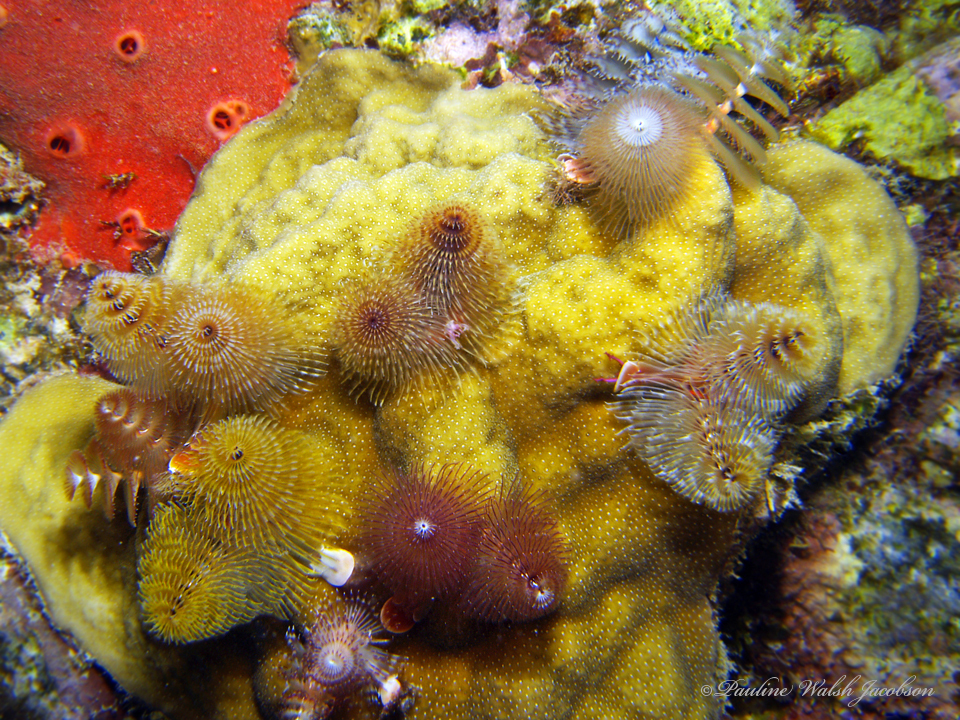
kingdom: Animalia
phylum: Annelida
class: Polychaeta
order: Sabellida
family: Serpulidae
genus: Spirobranchus
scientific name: Spirobranchus giganteus
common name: Christmas tree worm
